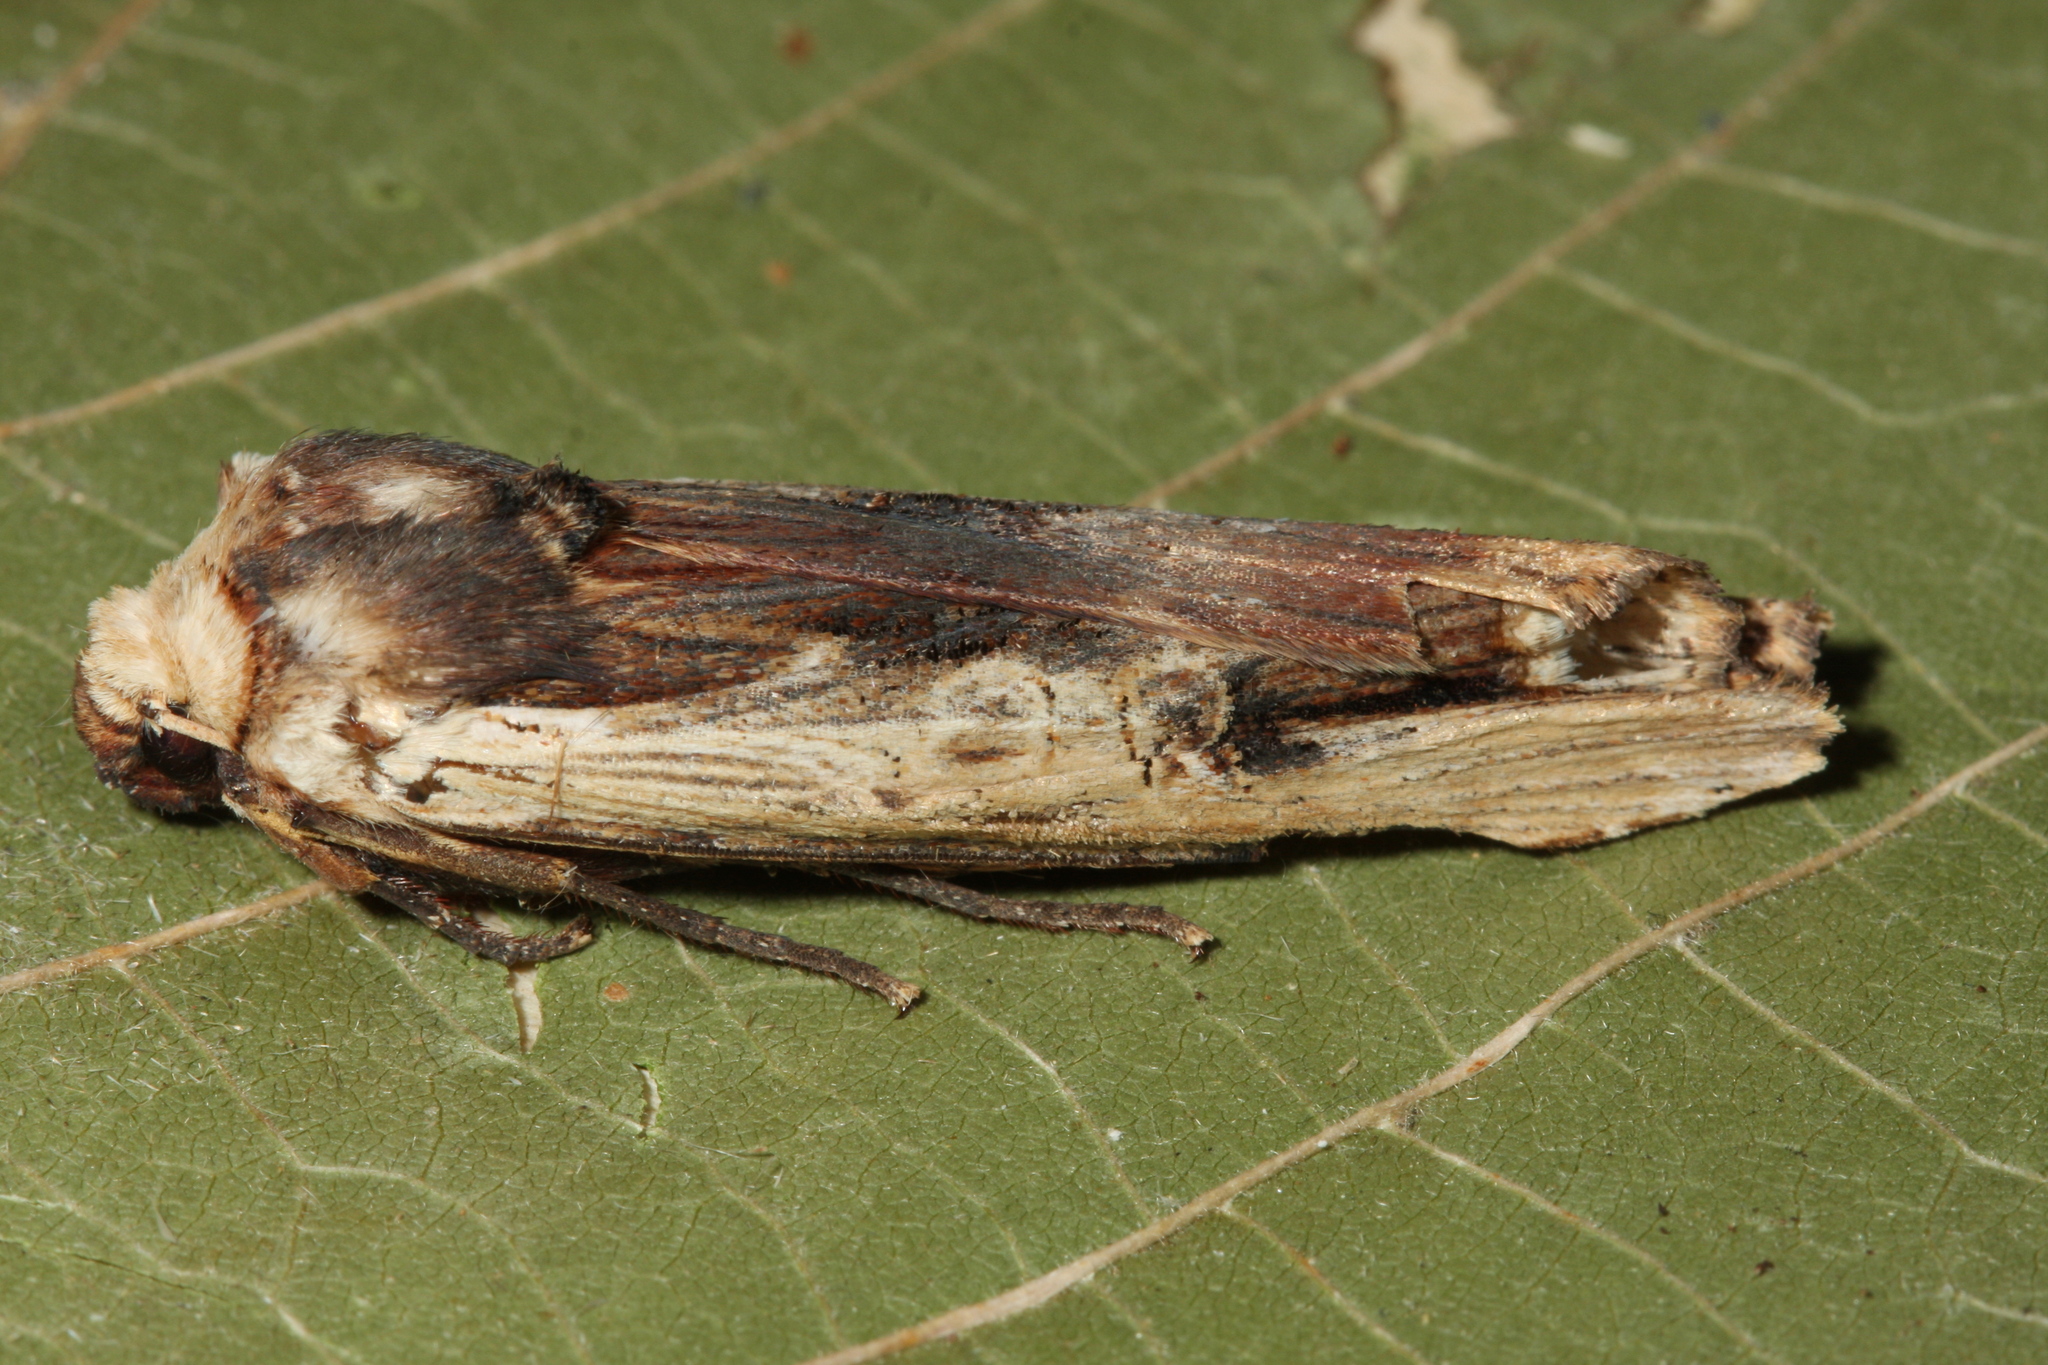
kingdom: Animalia
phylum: Arthropoda
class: Insecta
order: Lepidoptera
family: Noctuidae
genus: Xylena
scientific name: Xylena vetusta
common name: Red sword-grass
